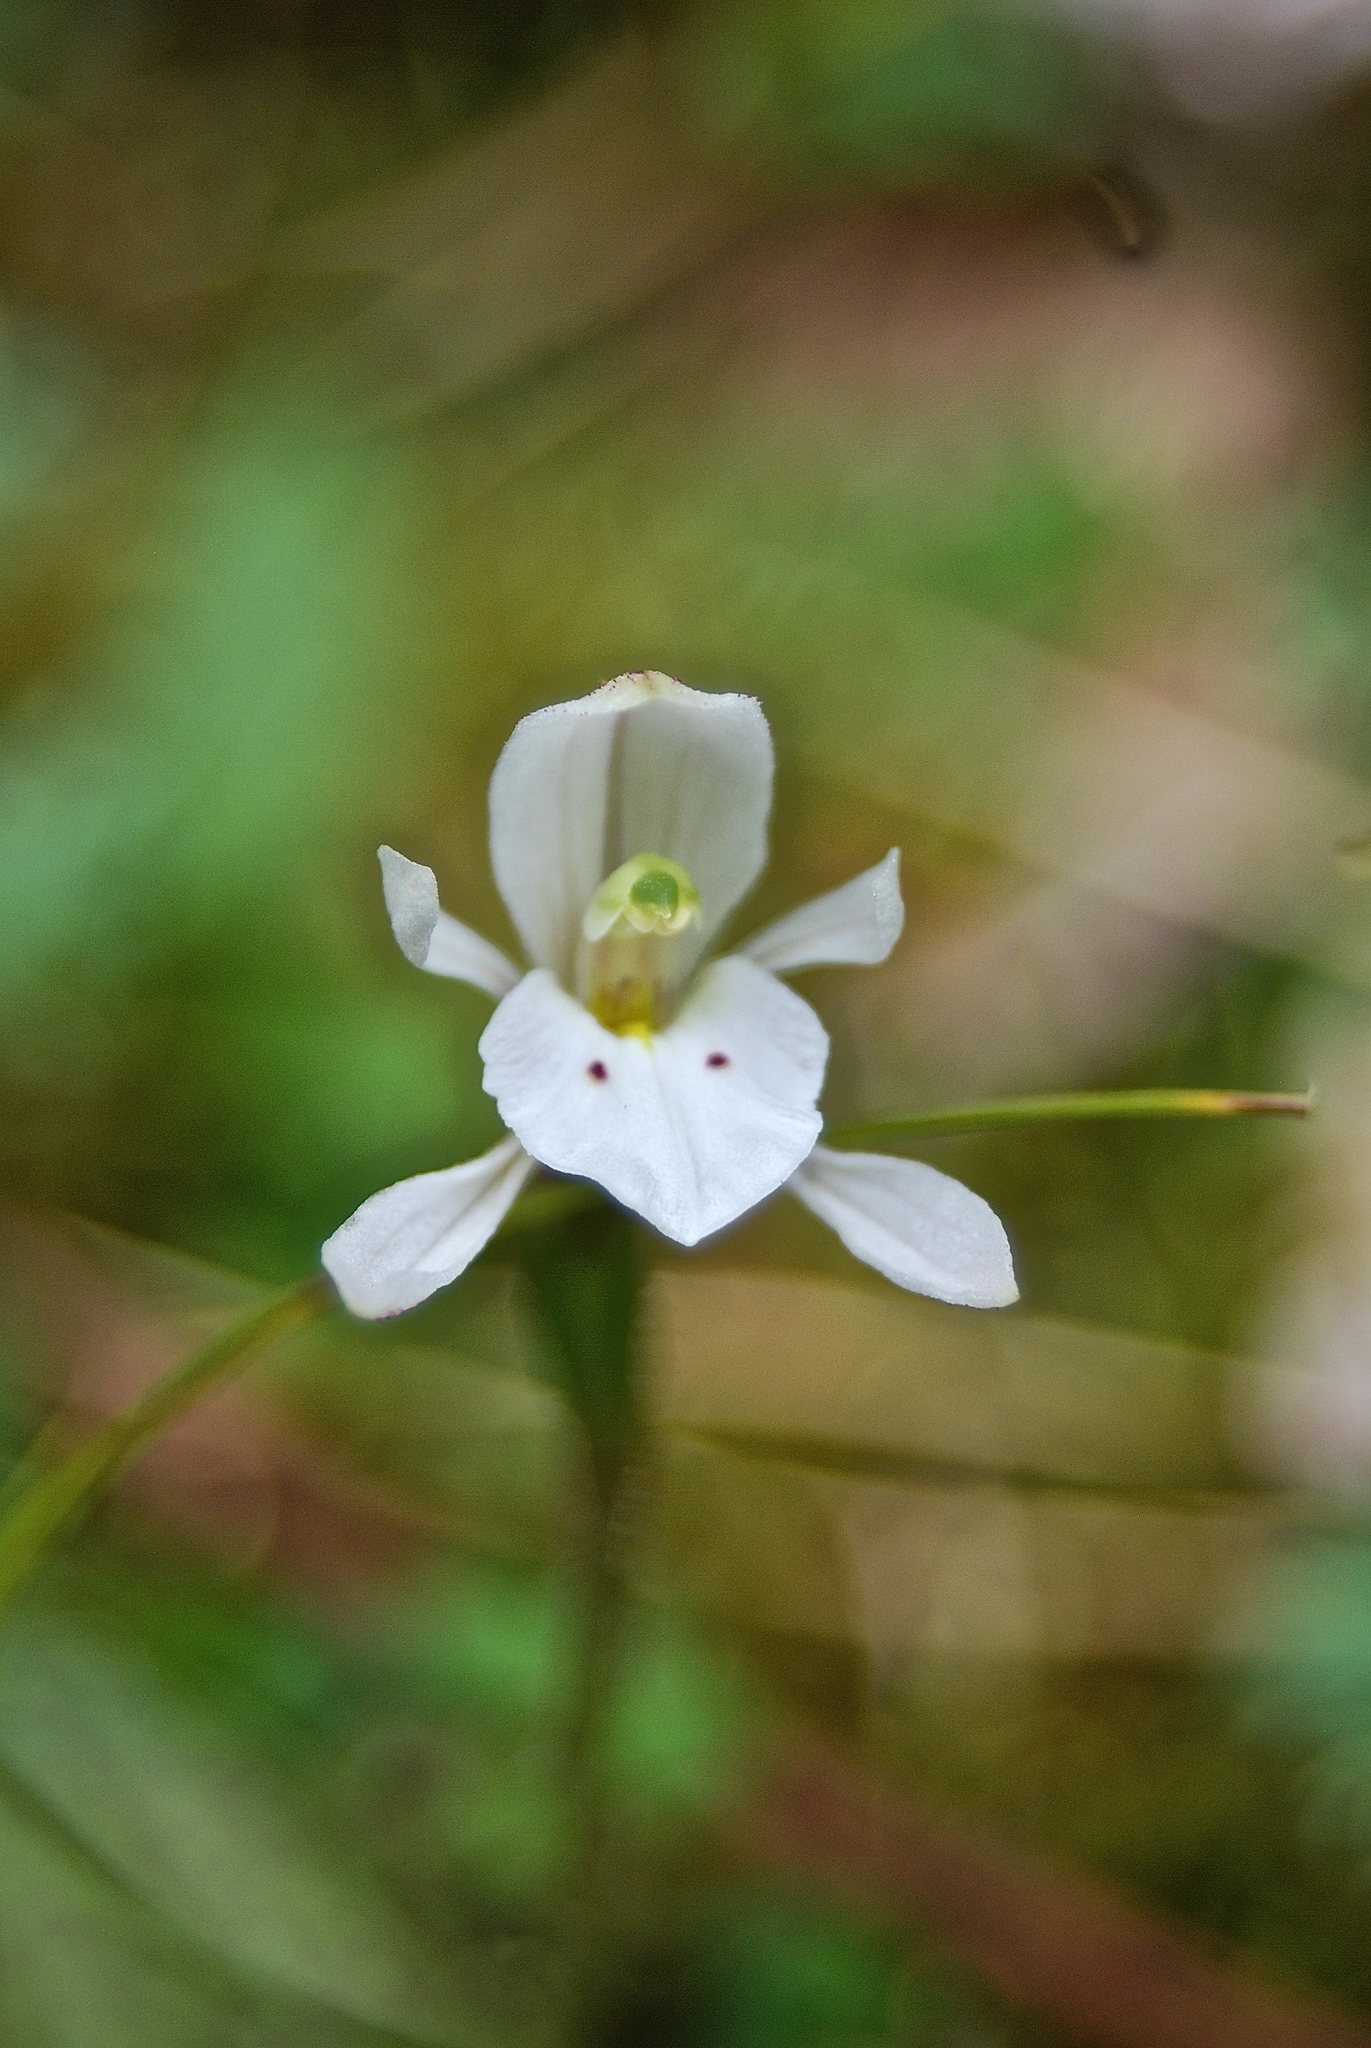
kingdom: Plantae
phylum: Tracheophyta
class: Liliopsida
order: Asparagales
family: Orchidaceae
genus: Aporostylis
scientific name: Aporostylis bifolia
